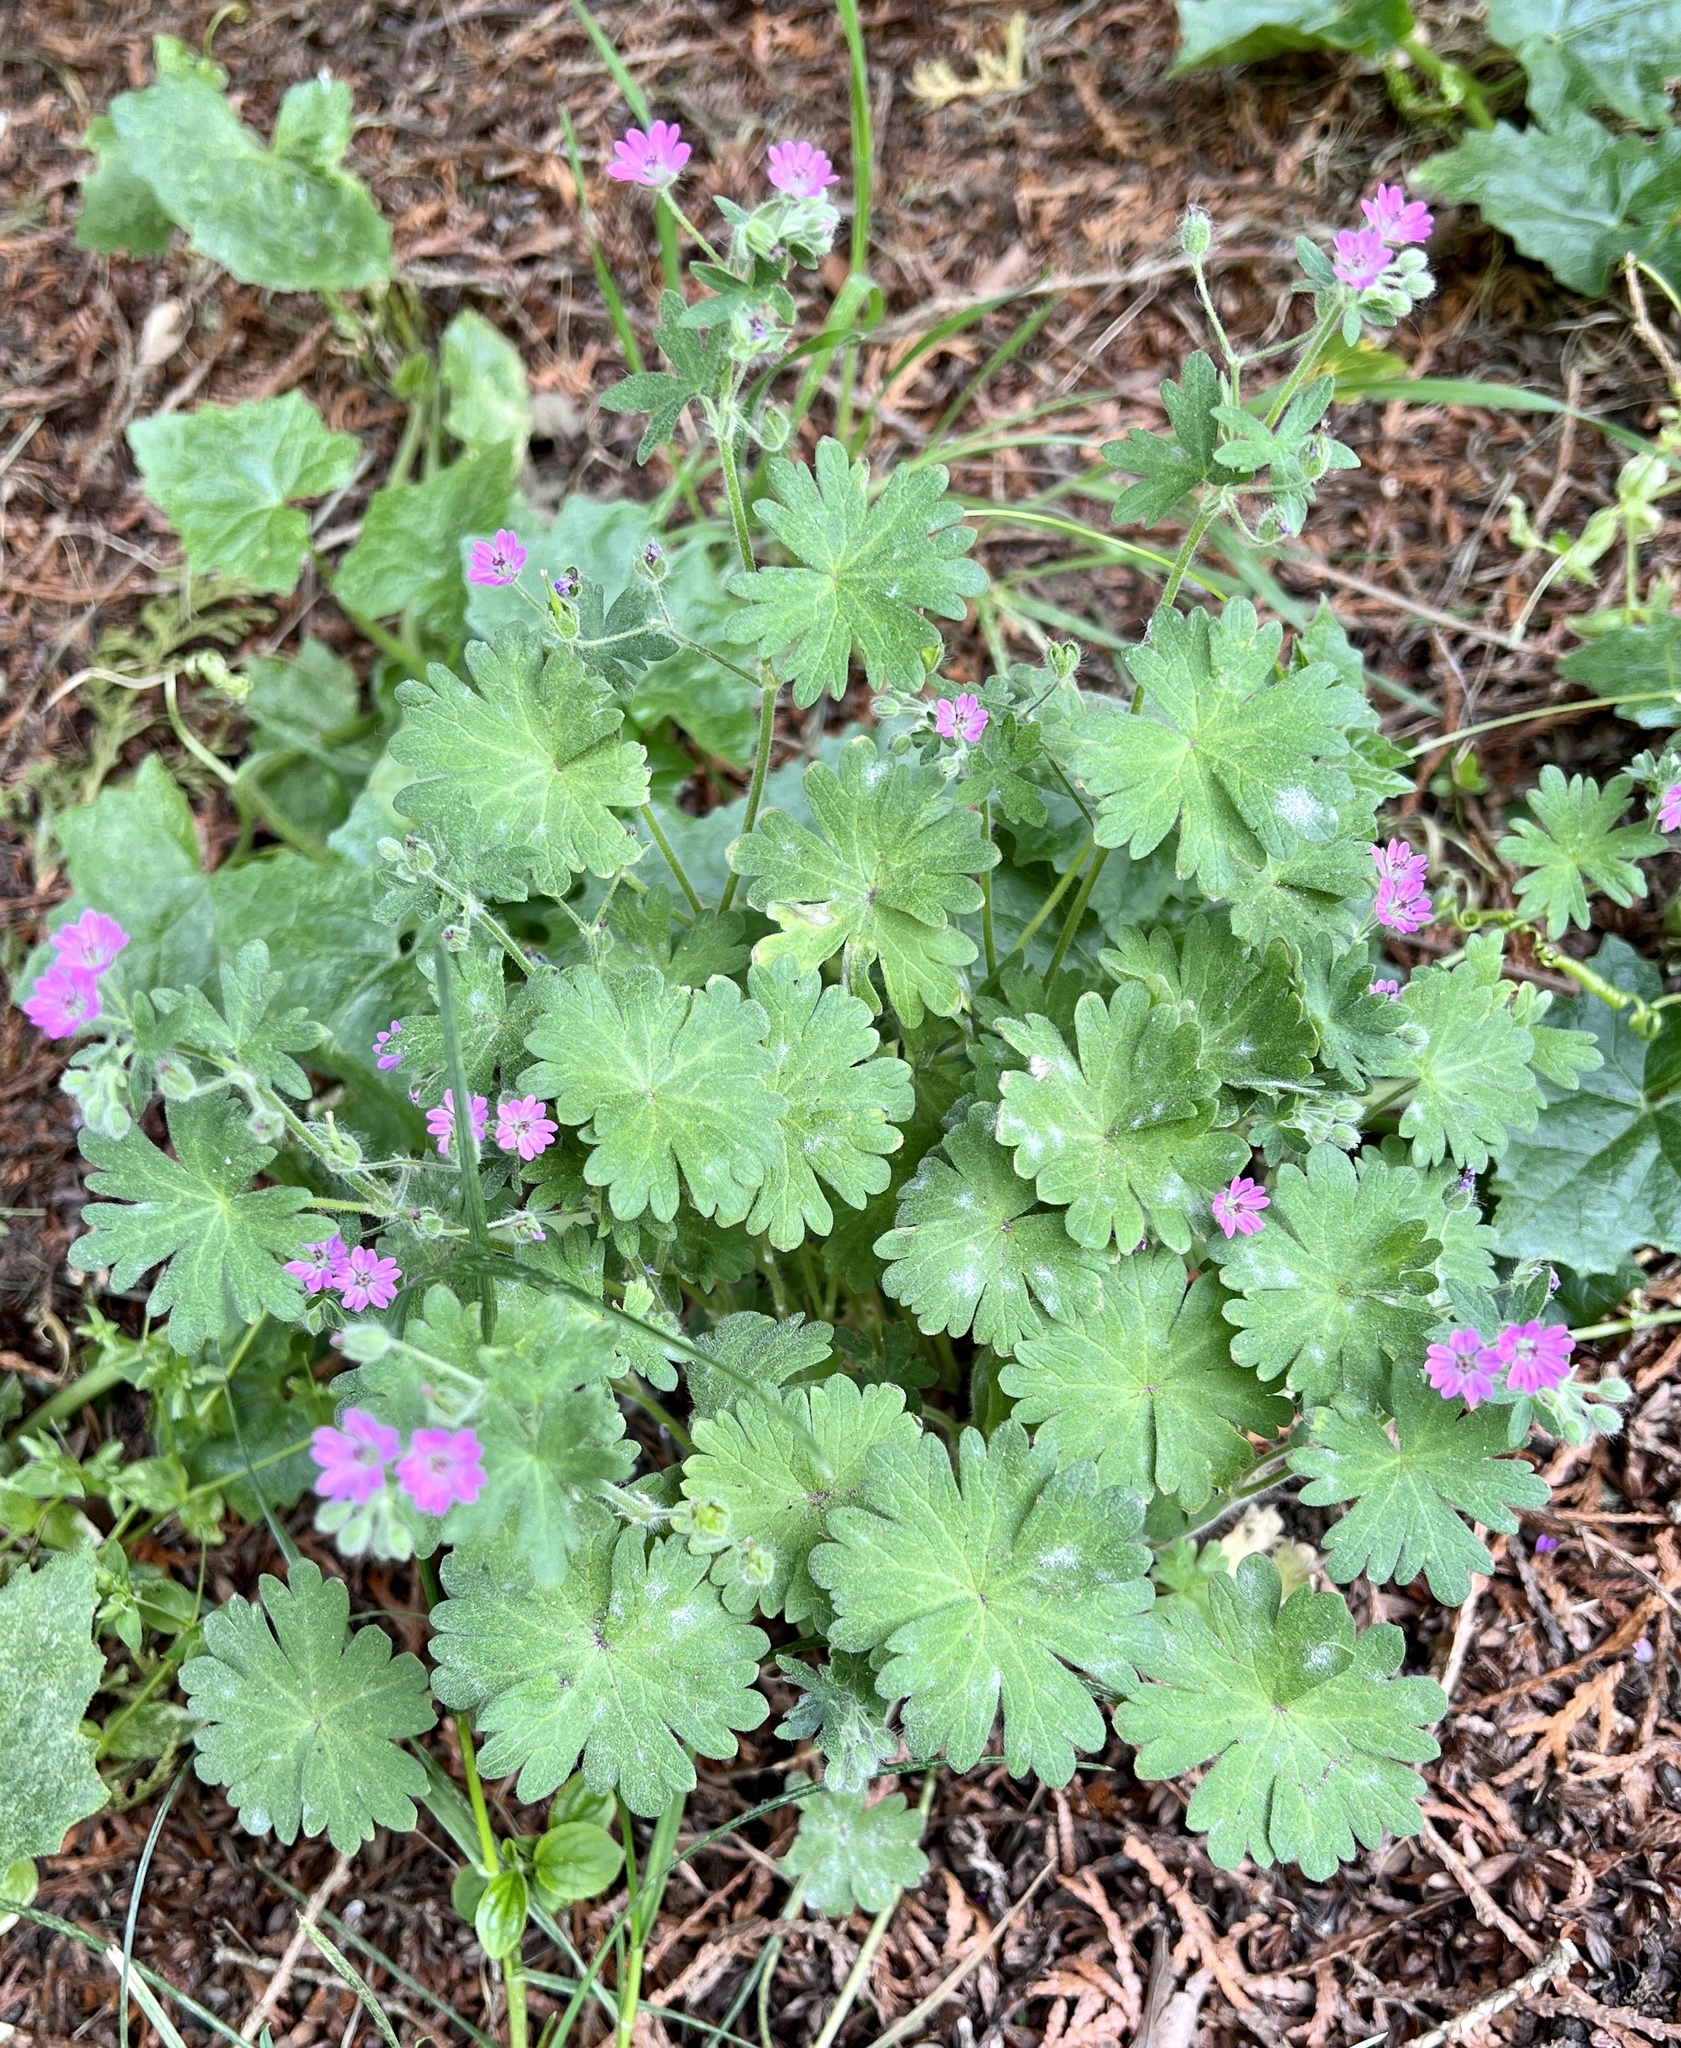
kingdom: Plantae
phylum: Tracheophyta
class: Magnoliopsida
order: Geraniales
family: Geraniaceae
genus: Geranium
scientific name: Geranium molle
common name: Dove's-foot crane's-bill
